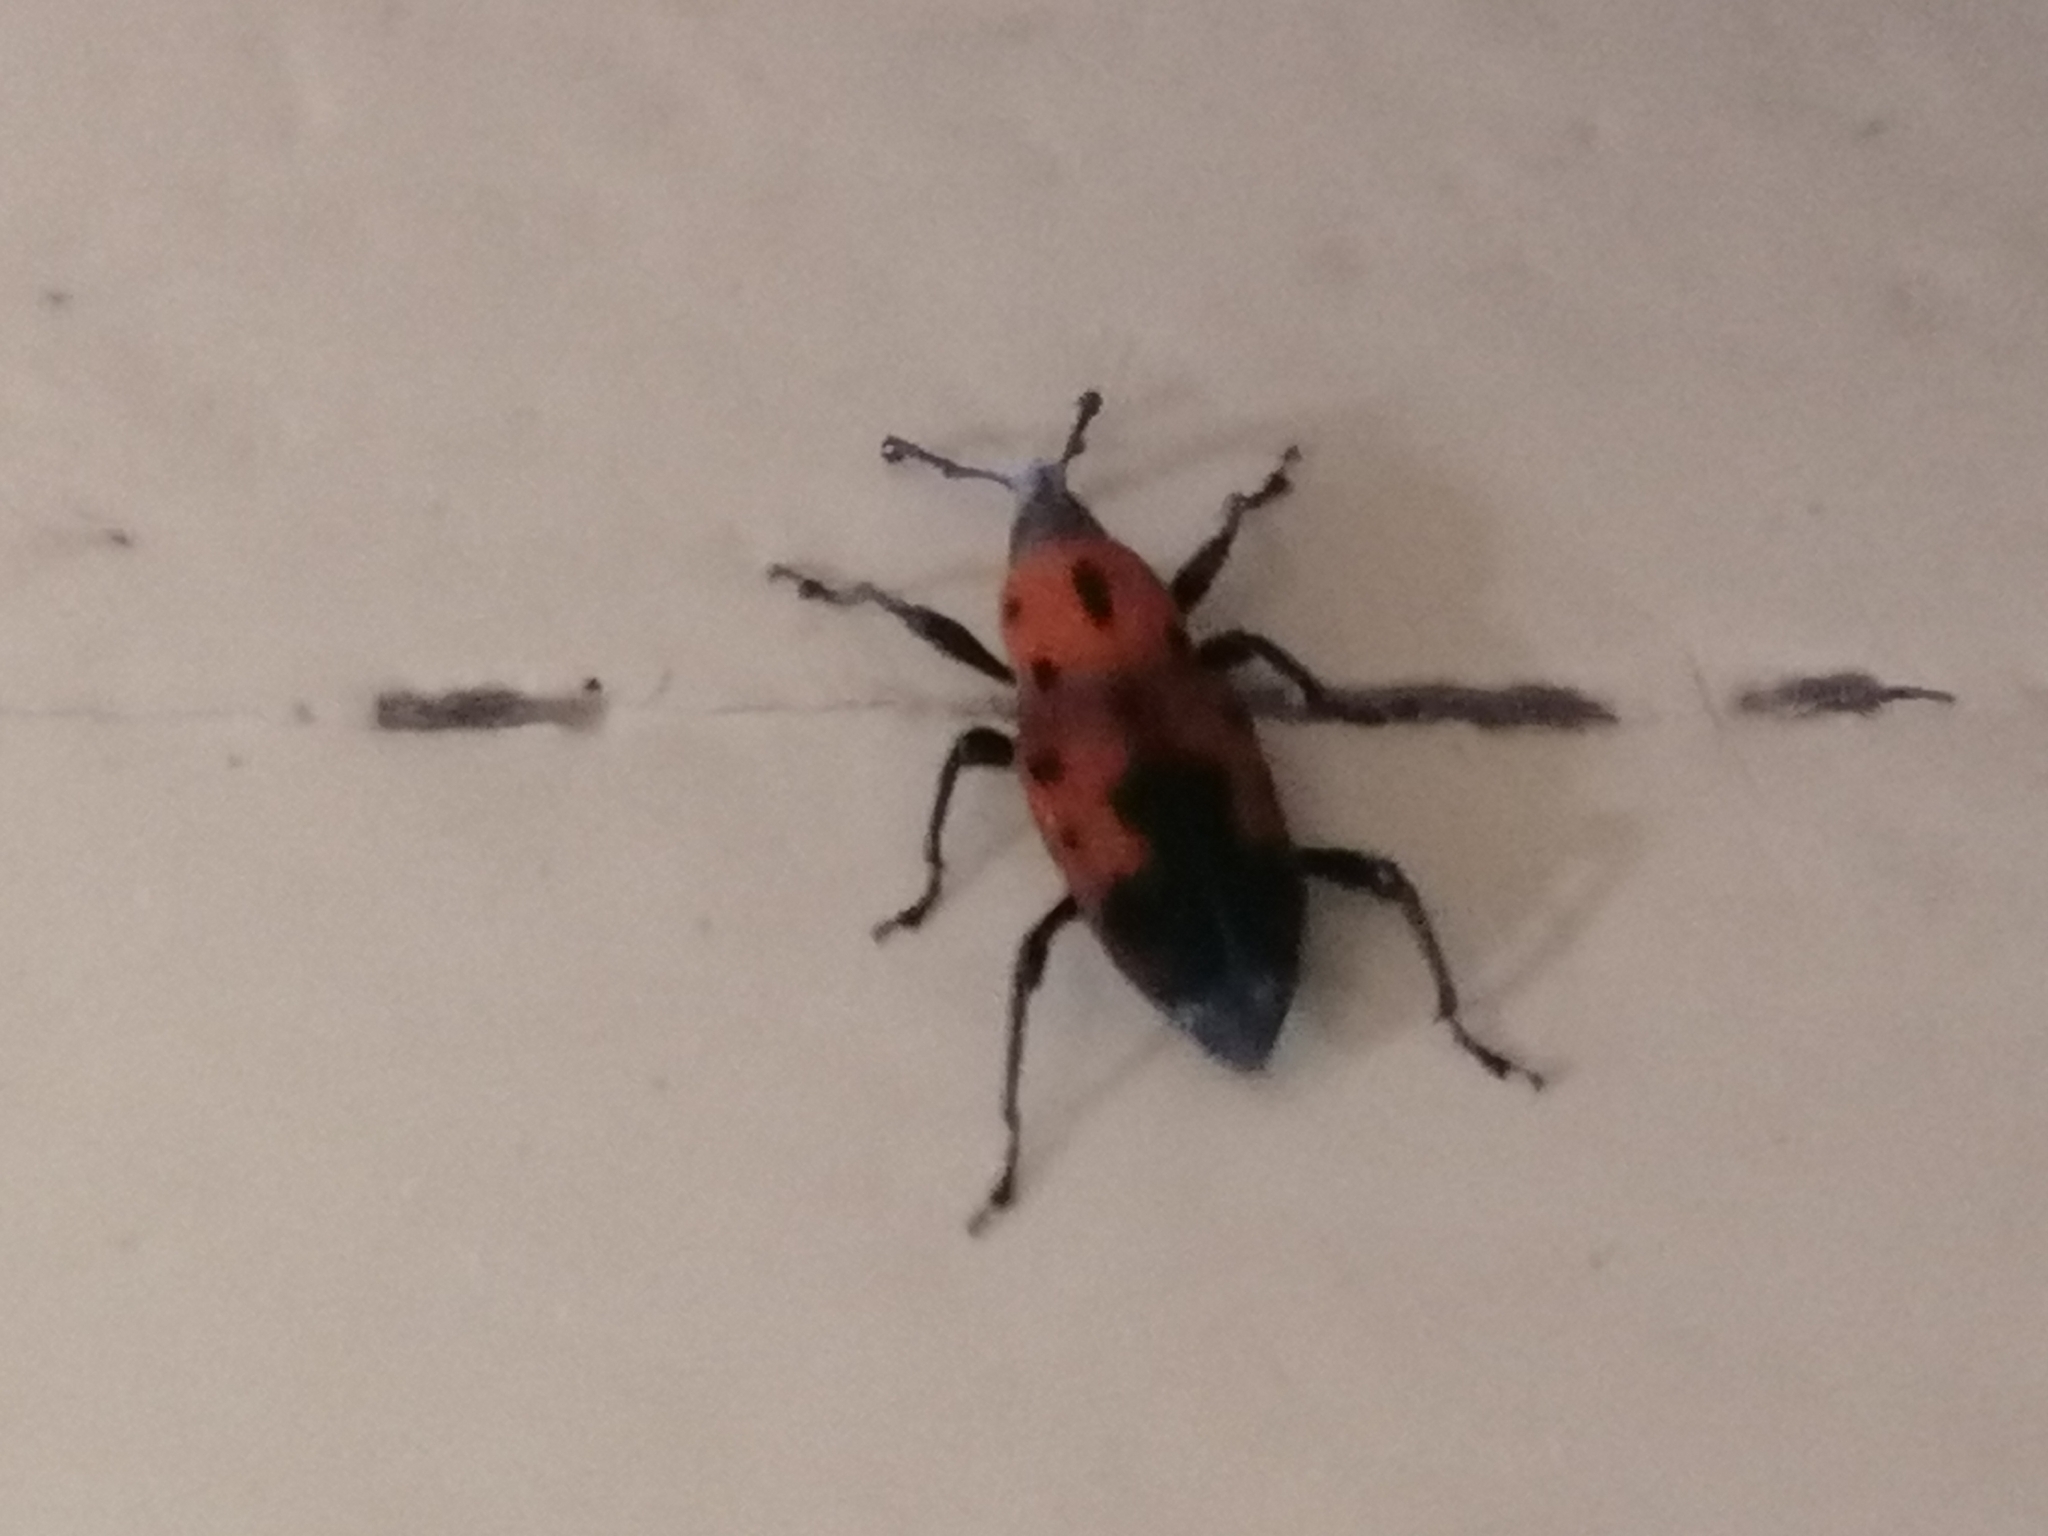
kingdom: Animalia
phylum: Arthropoda
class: Insecta
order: Coleoptera
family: Dryophthoridae
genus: Rhodobaenus
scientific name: Rhodobaenus quinquepunctatus
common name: Cocklebur weevil
